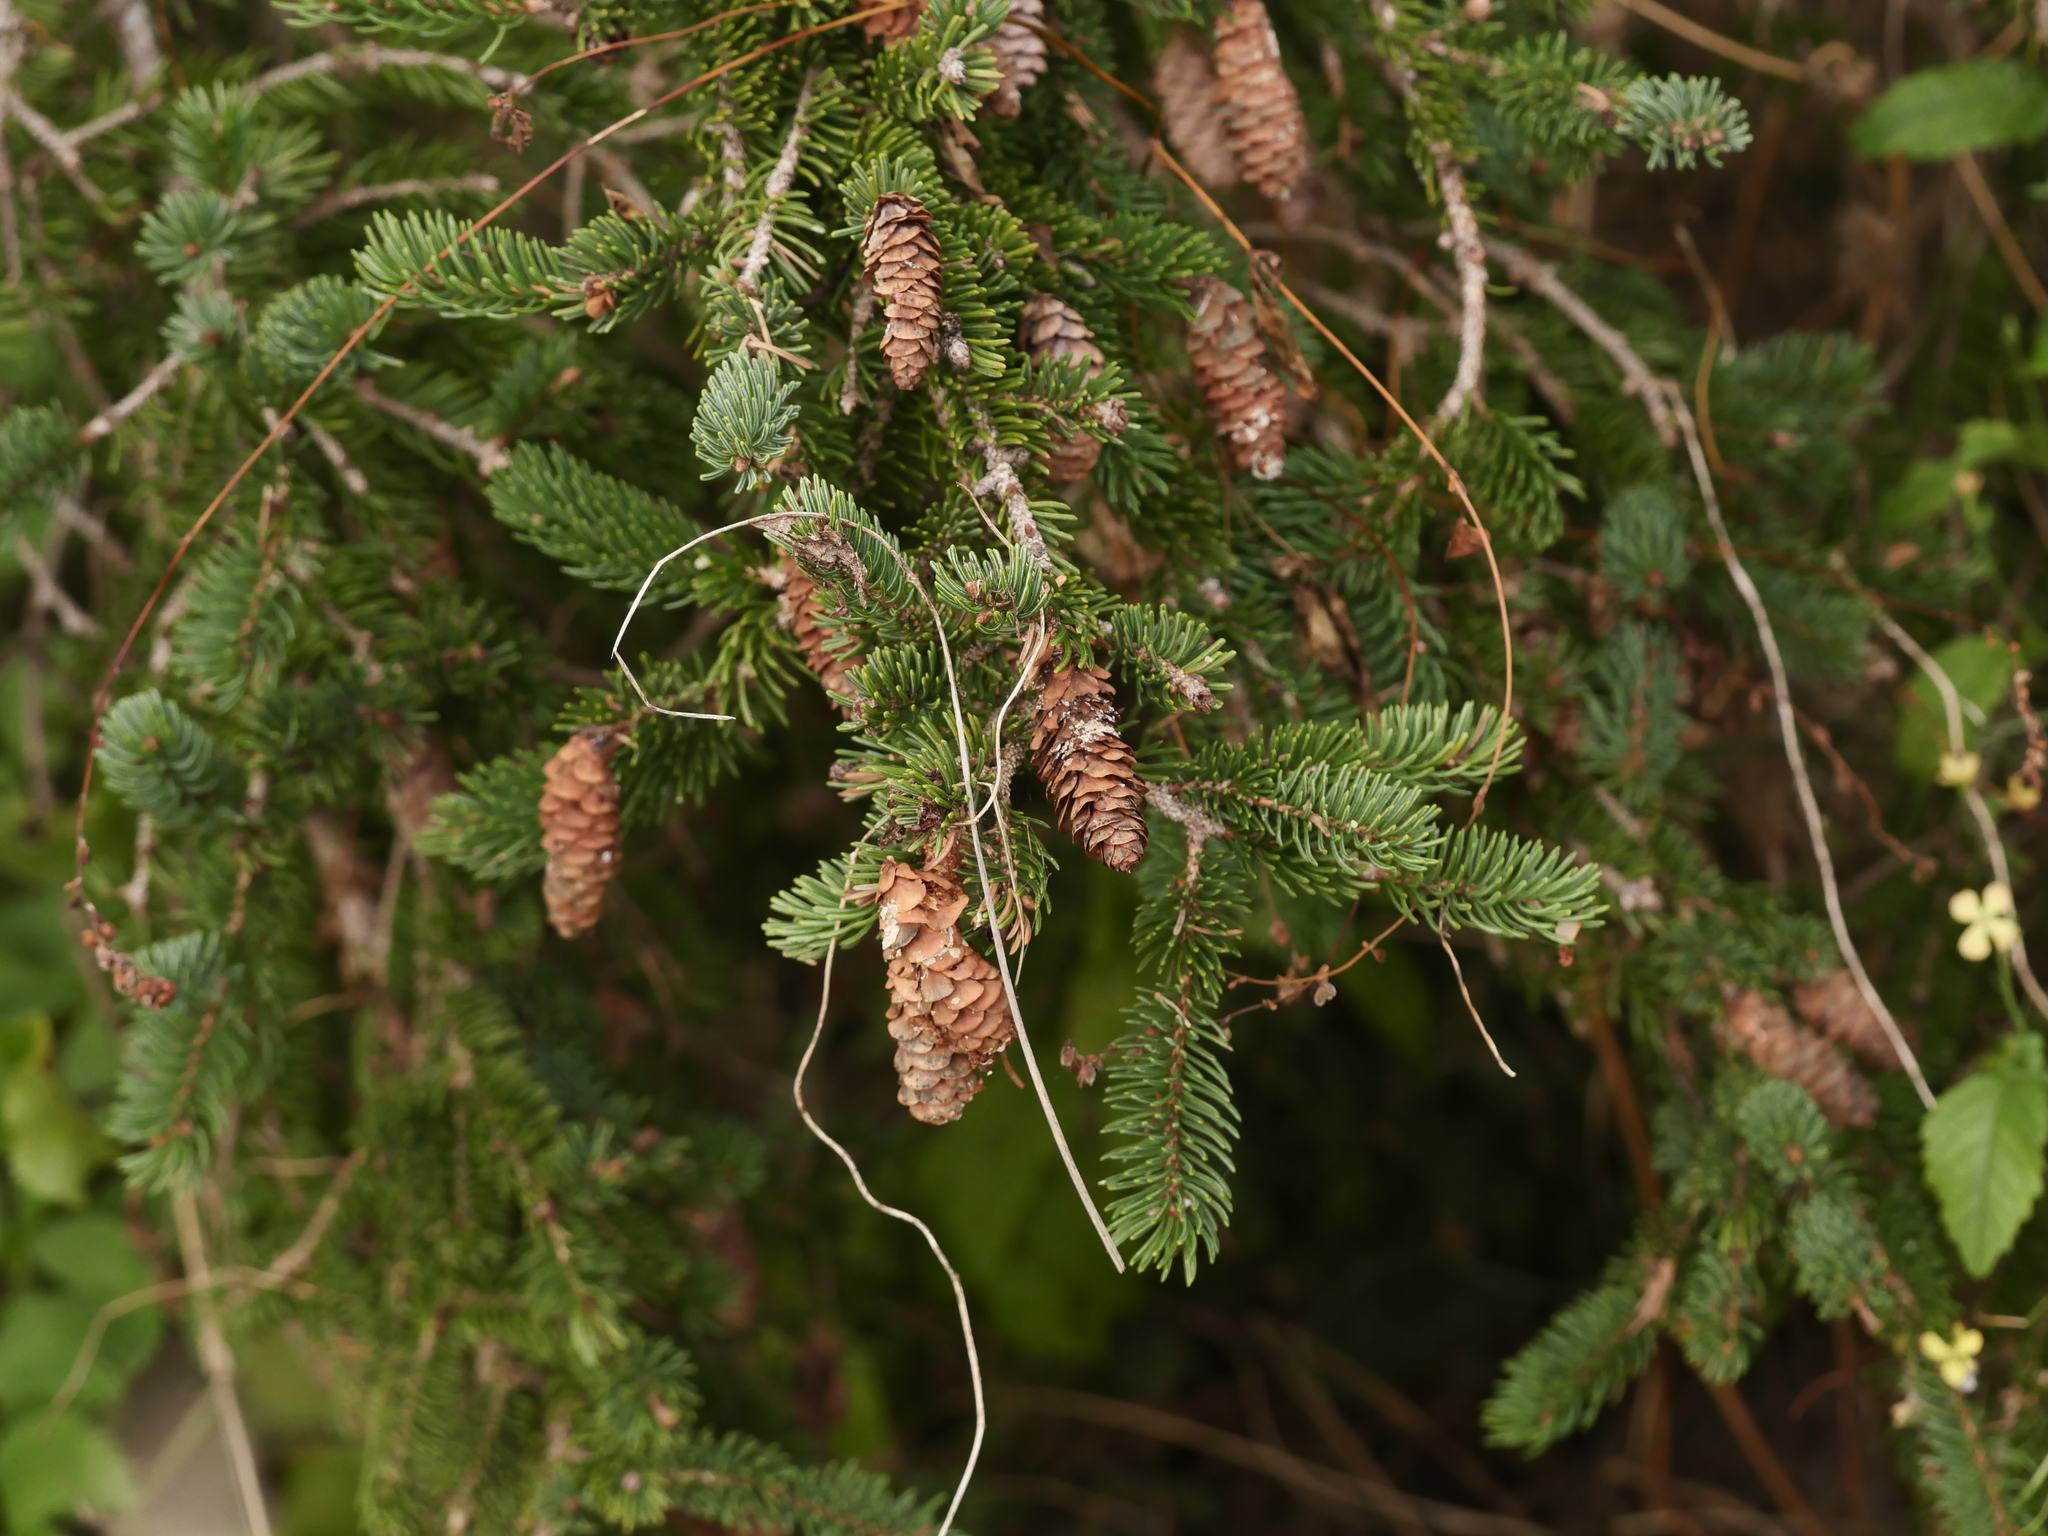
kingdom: Plantae
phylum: Tracheophyta
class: Pinopsida
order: Pinales
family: Pinaceae
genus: Picea
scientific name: Picea glauca
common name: White spruce
